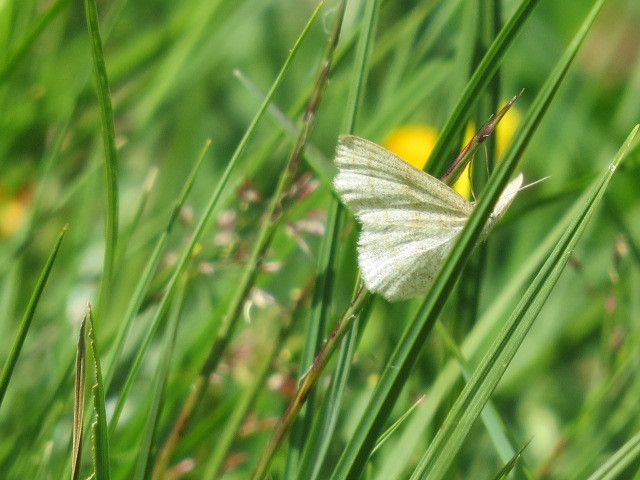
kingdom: Animalia
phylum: Arthropoda
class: Insecta
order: Lepidoptera
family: Geometridae
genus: Scopula
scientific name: Scopula ternata
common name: Smoky wave
